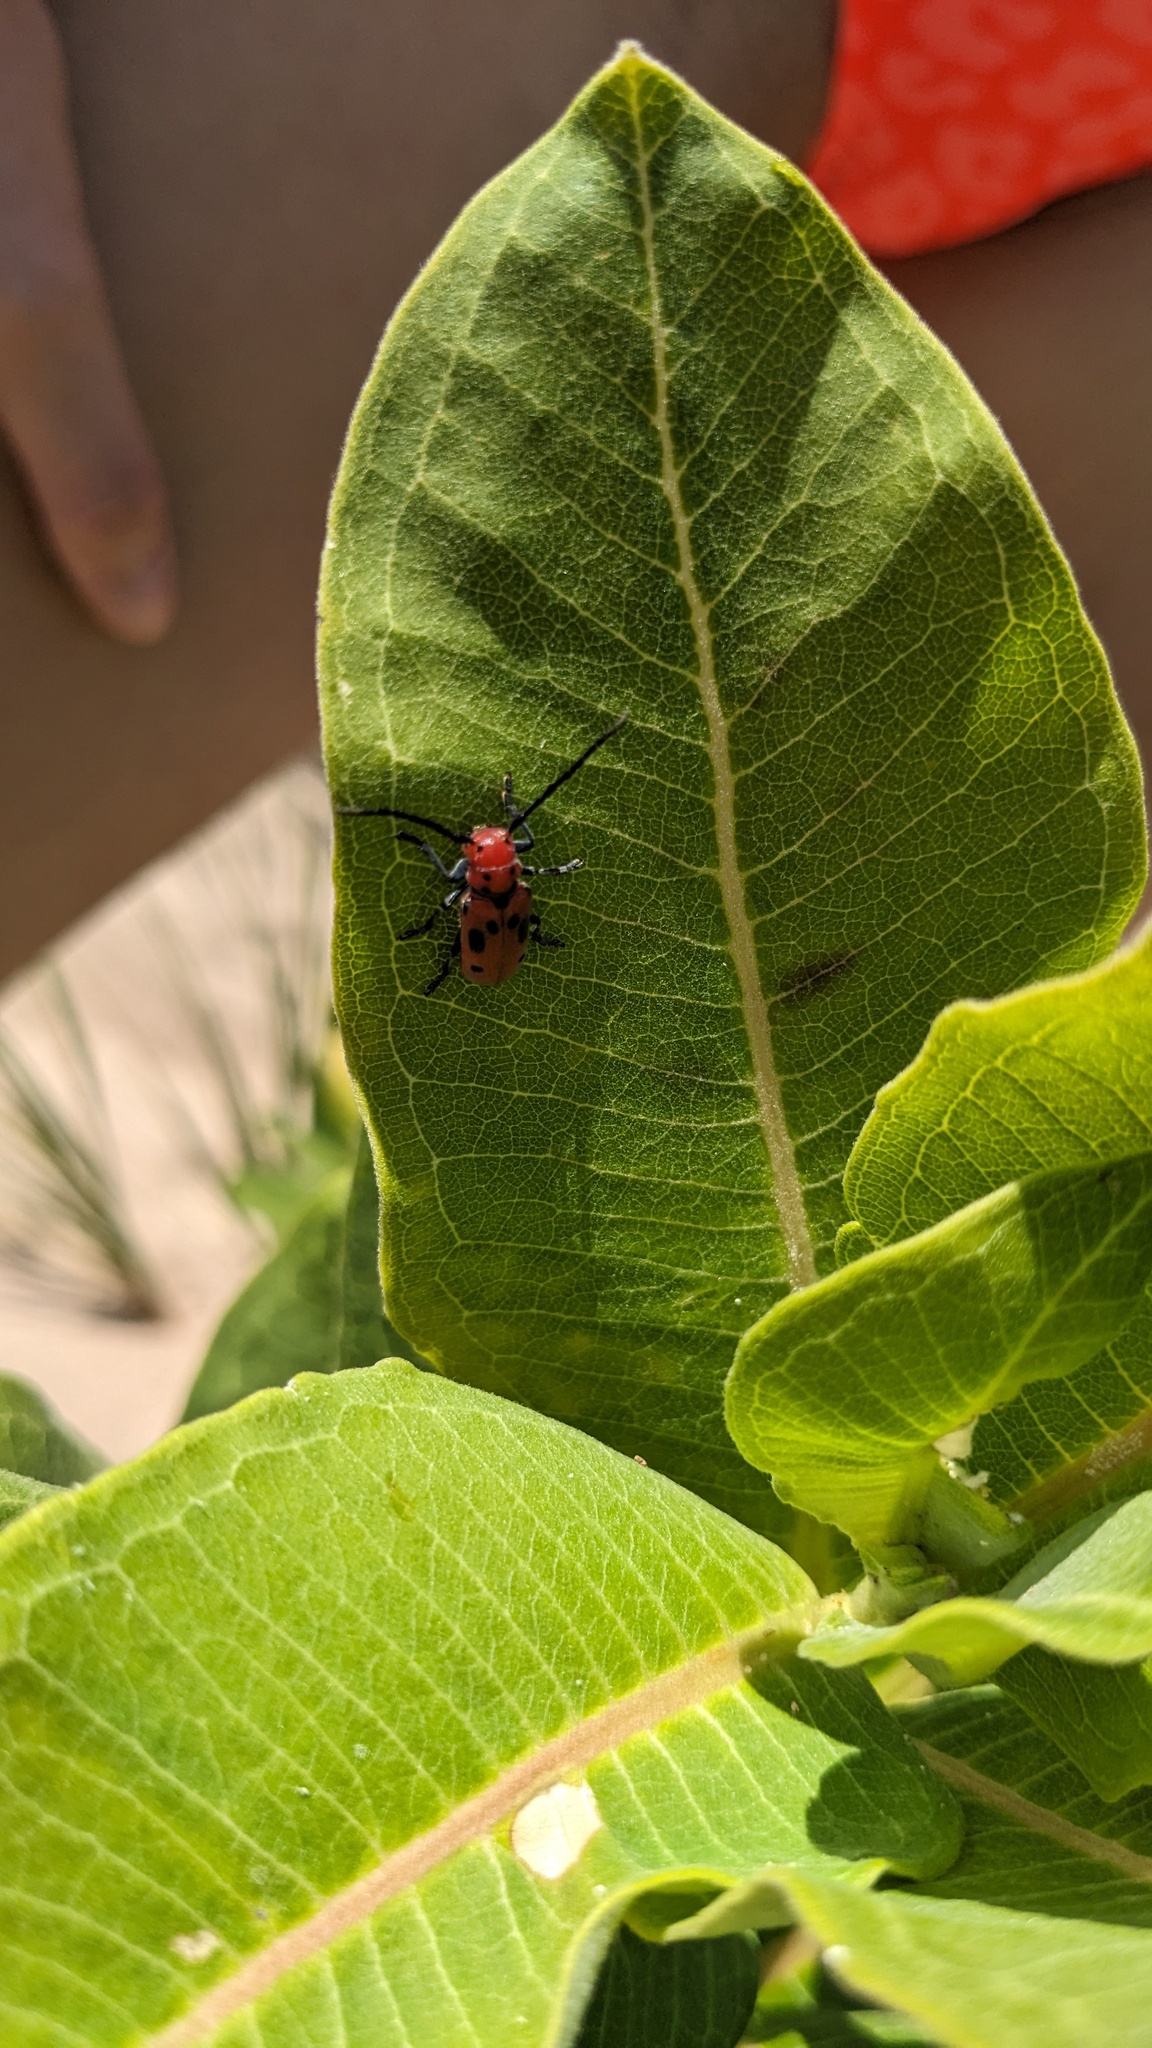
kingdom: Animalia
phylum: Arthropoda
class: Insecta
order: Coleoptera
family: Cerambycidae
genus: Tetraopes
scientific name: Tetraopes tetrophthalmus
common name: Red milkweed beetle
